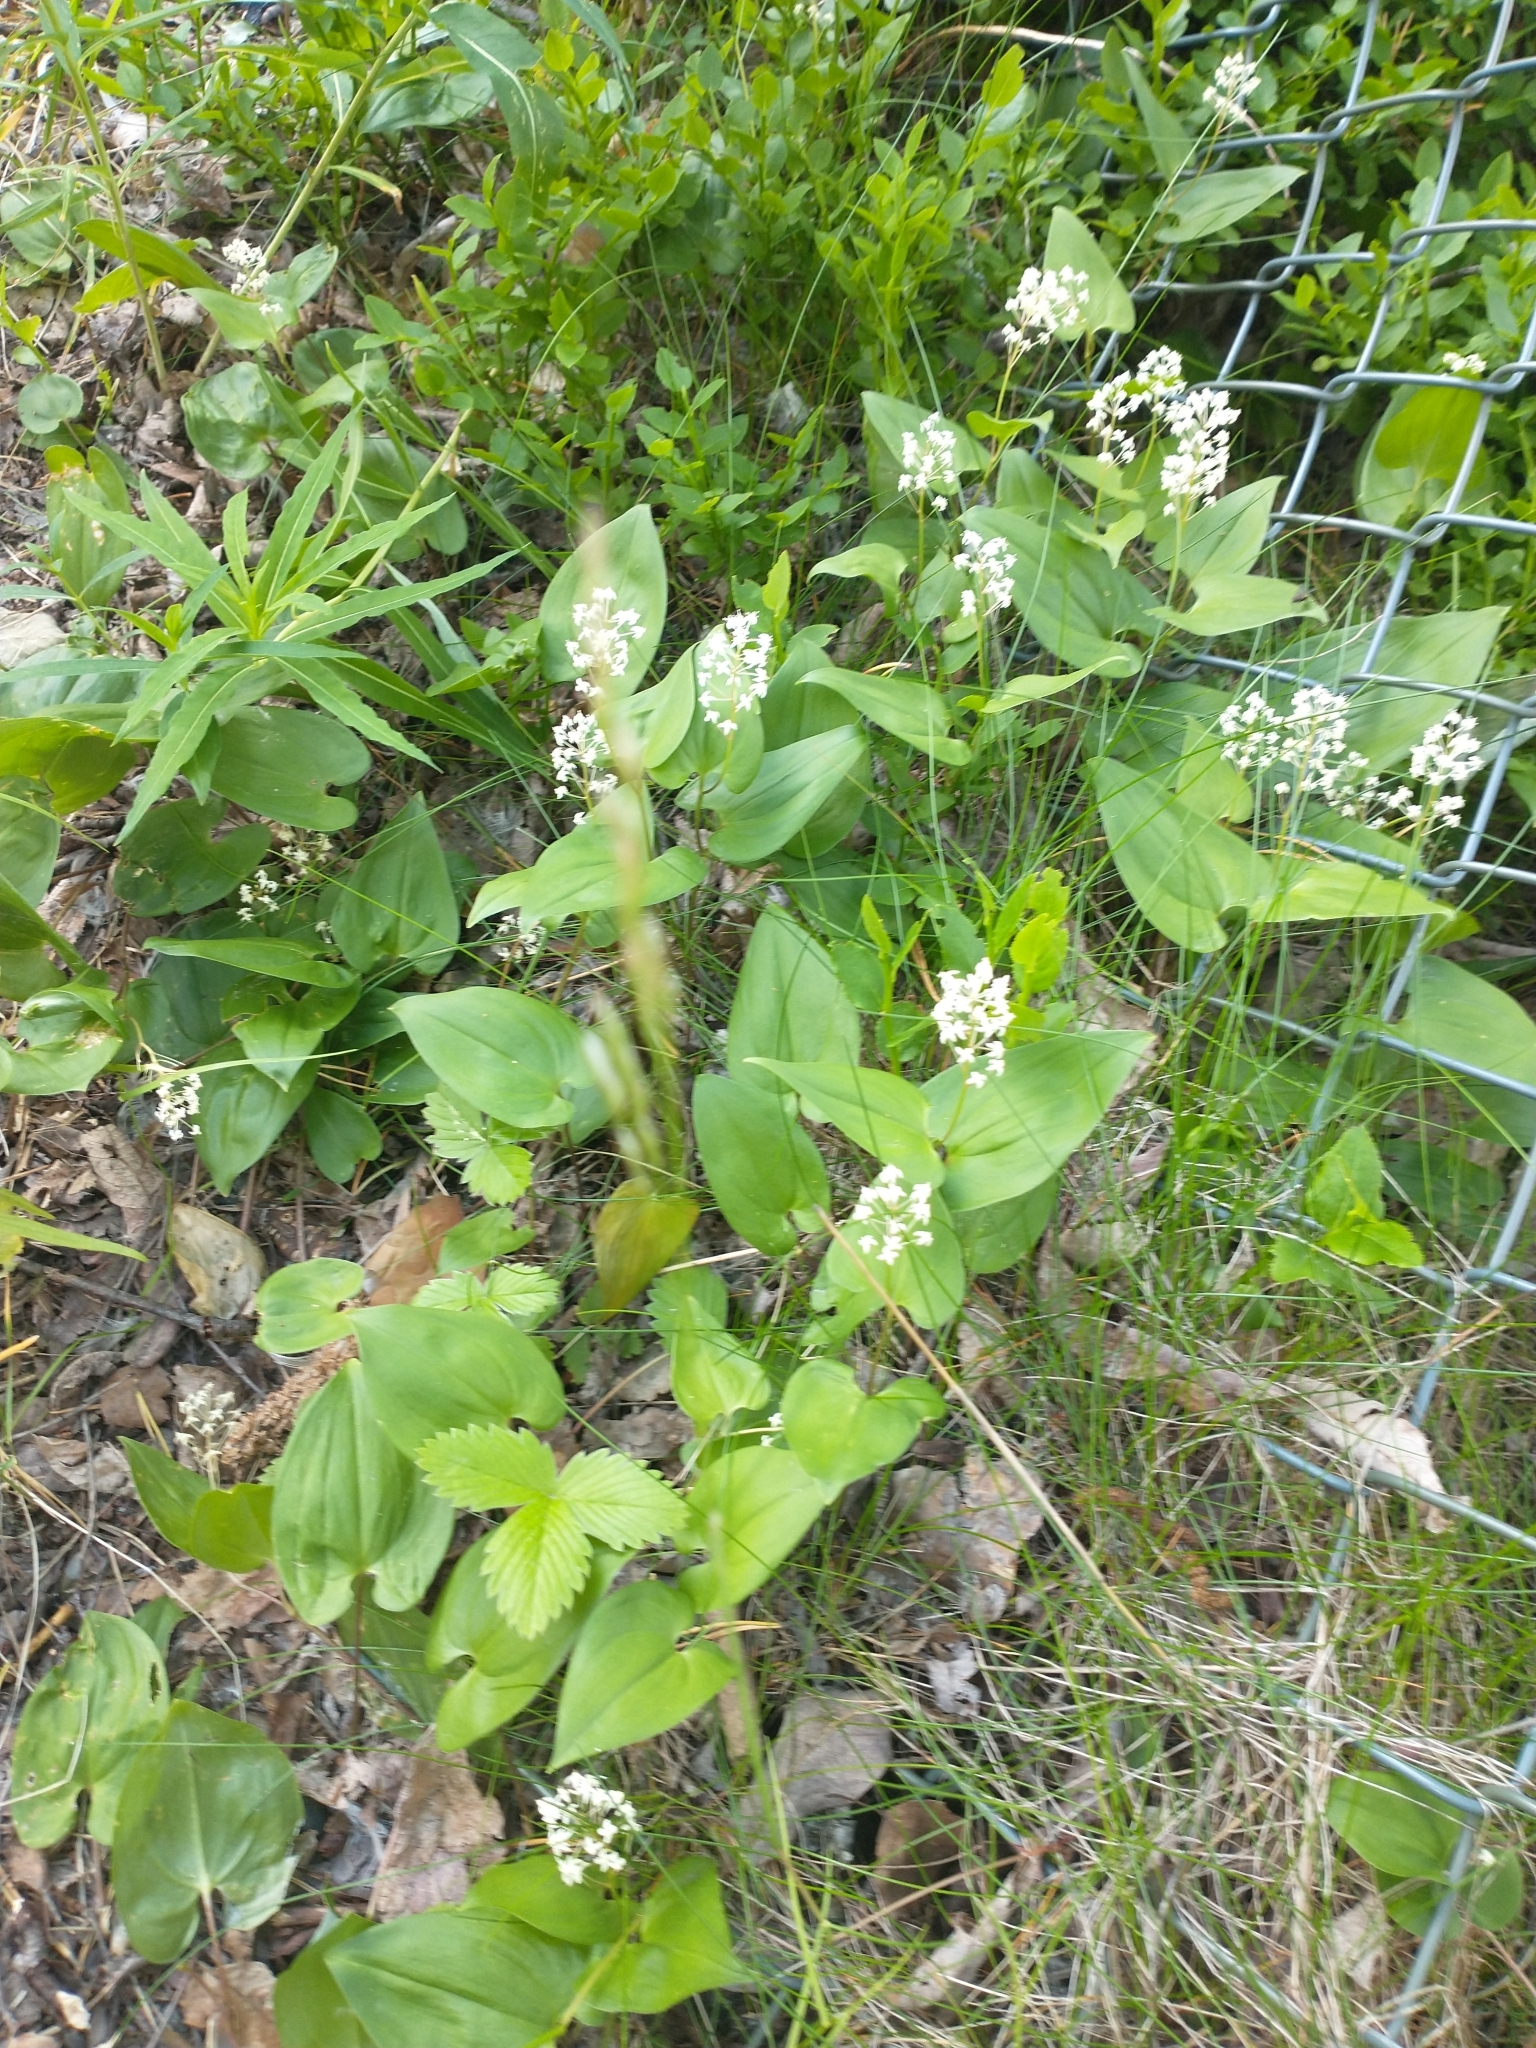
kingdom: Plantae
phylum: Tracheophyta
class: Liliopsida
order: Asparagales
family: Asparagaceae
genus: Maianthemum
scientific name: Maianthemum bifolium
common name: May lily
